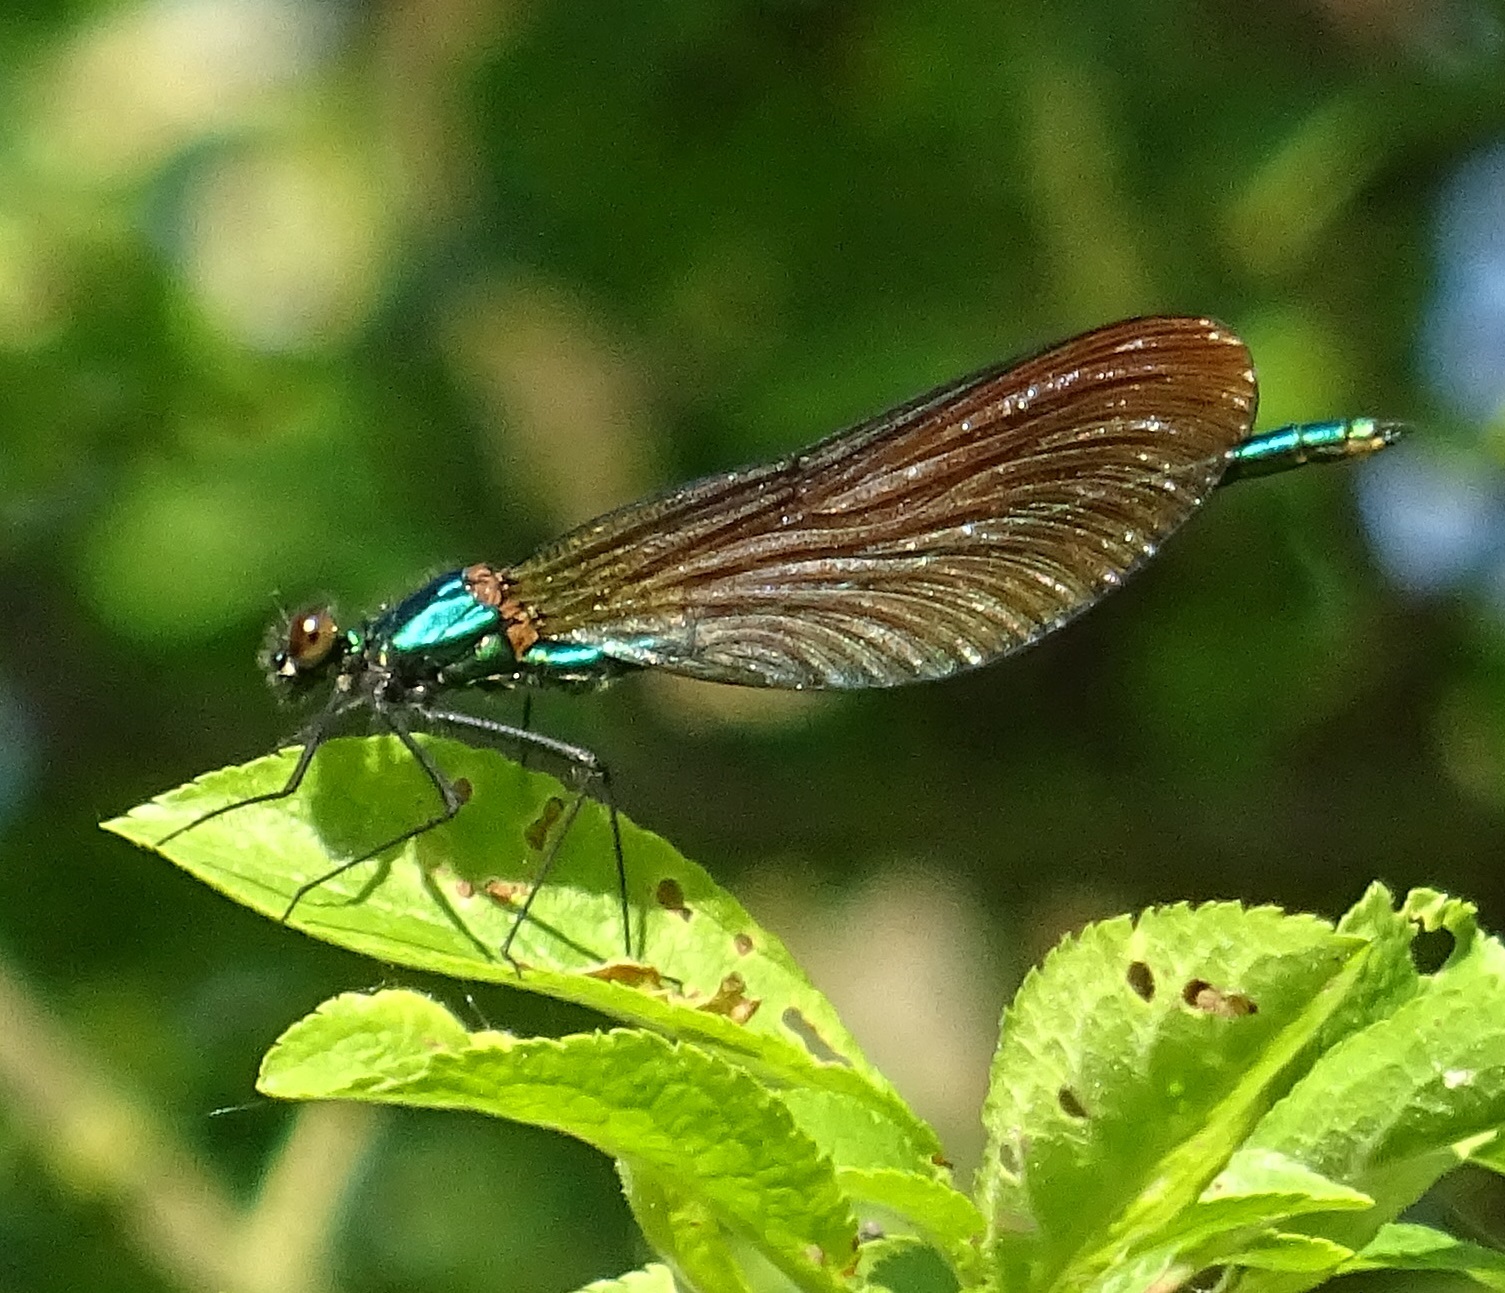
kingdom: Animalia
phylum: Arthropoda
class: Insecta
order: Odonata
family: Calopterygidae
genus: Calopteryx
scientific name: Calopteryx virgo
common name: Beautiful demoiselle
